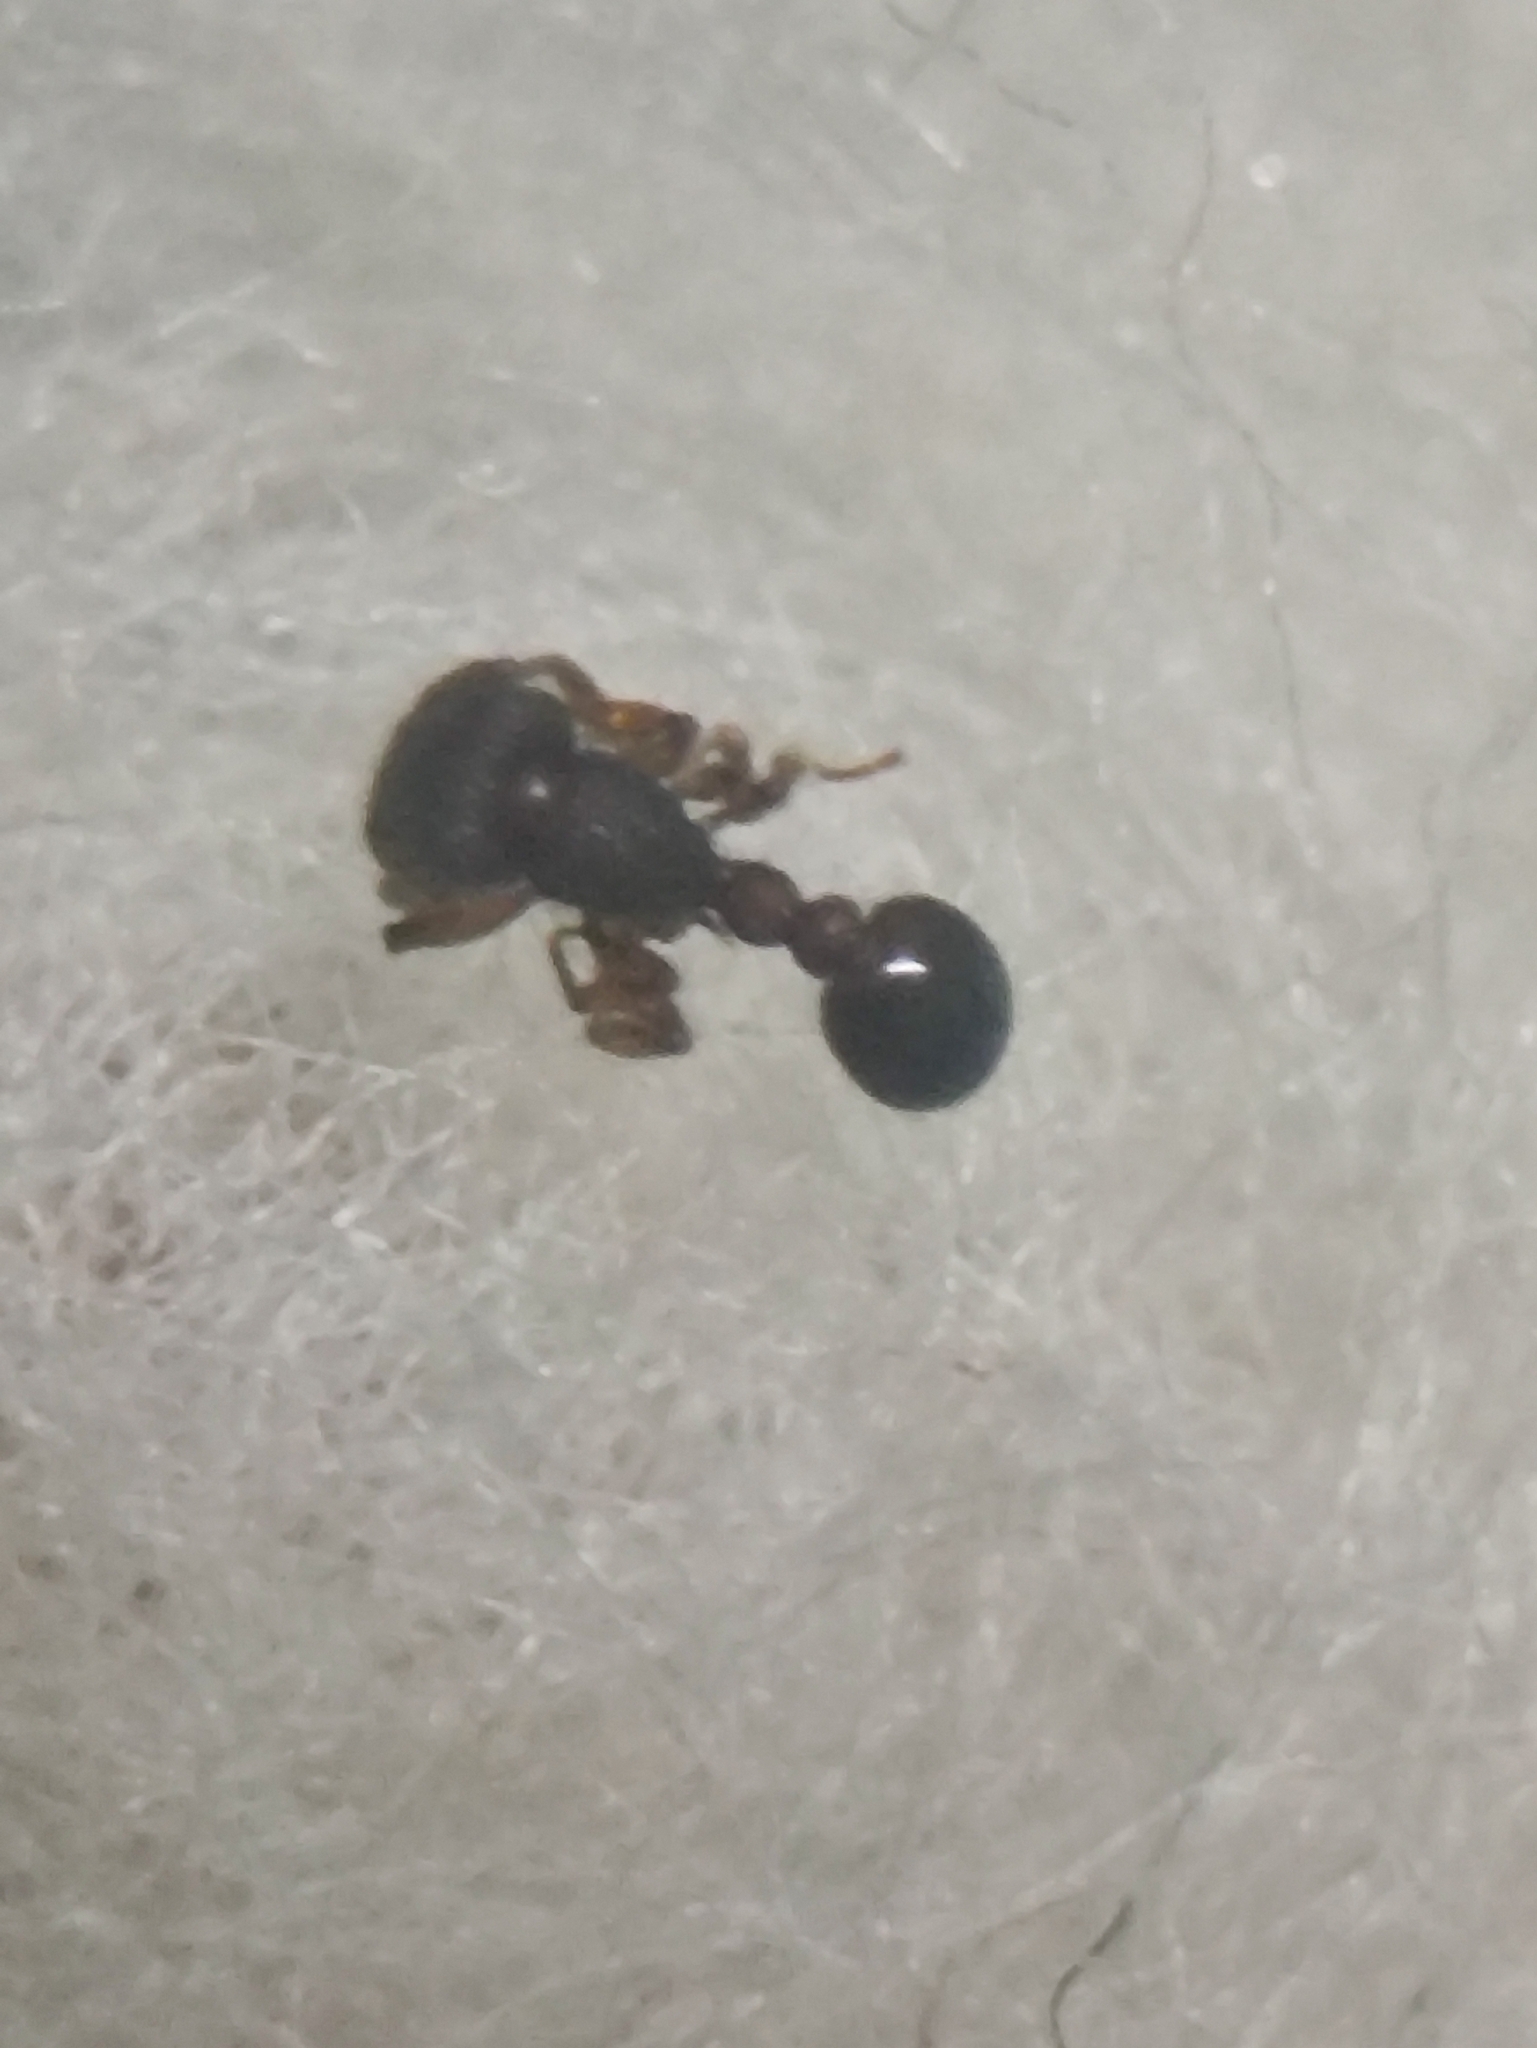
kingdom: Animalia
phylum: Arthropoda
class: Insecta
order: Hymenoptera
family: Formicidae
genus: Tetramorium
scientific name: Tetramorium lanuginosum
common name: Ant
